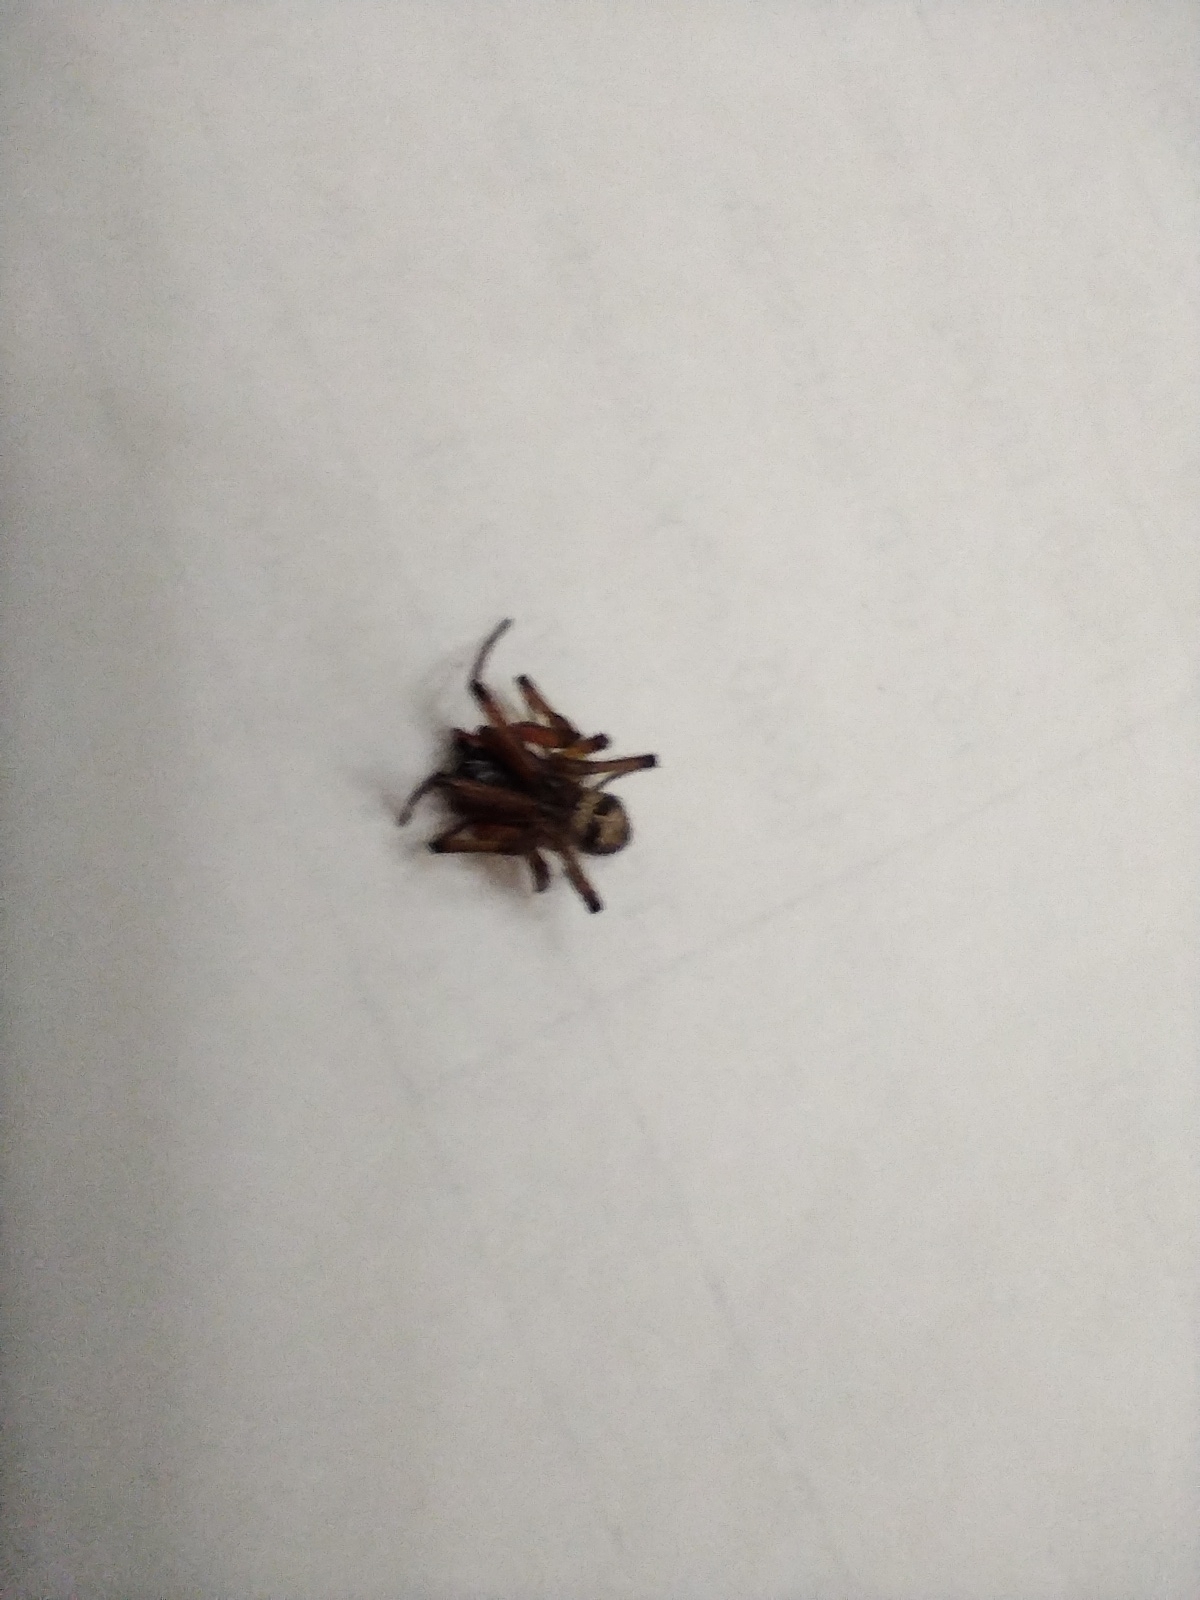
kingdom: Animalia
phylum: Arthropoda
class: Arachnida
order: Araneae
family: Theridiidae
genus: Steatoda
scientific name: Steatoda nobilis
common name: Cobweb weaver
